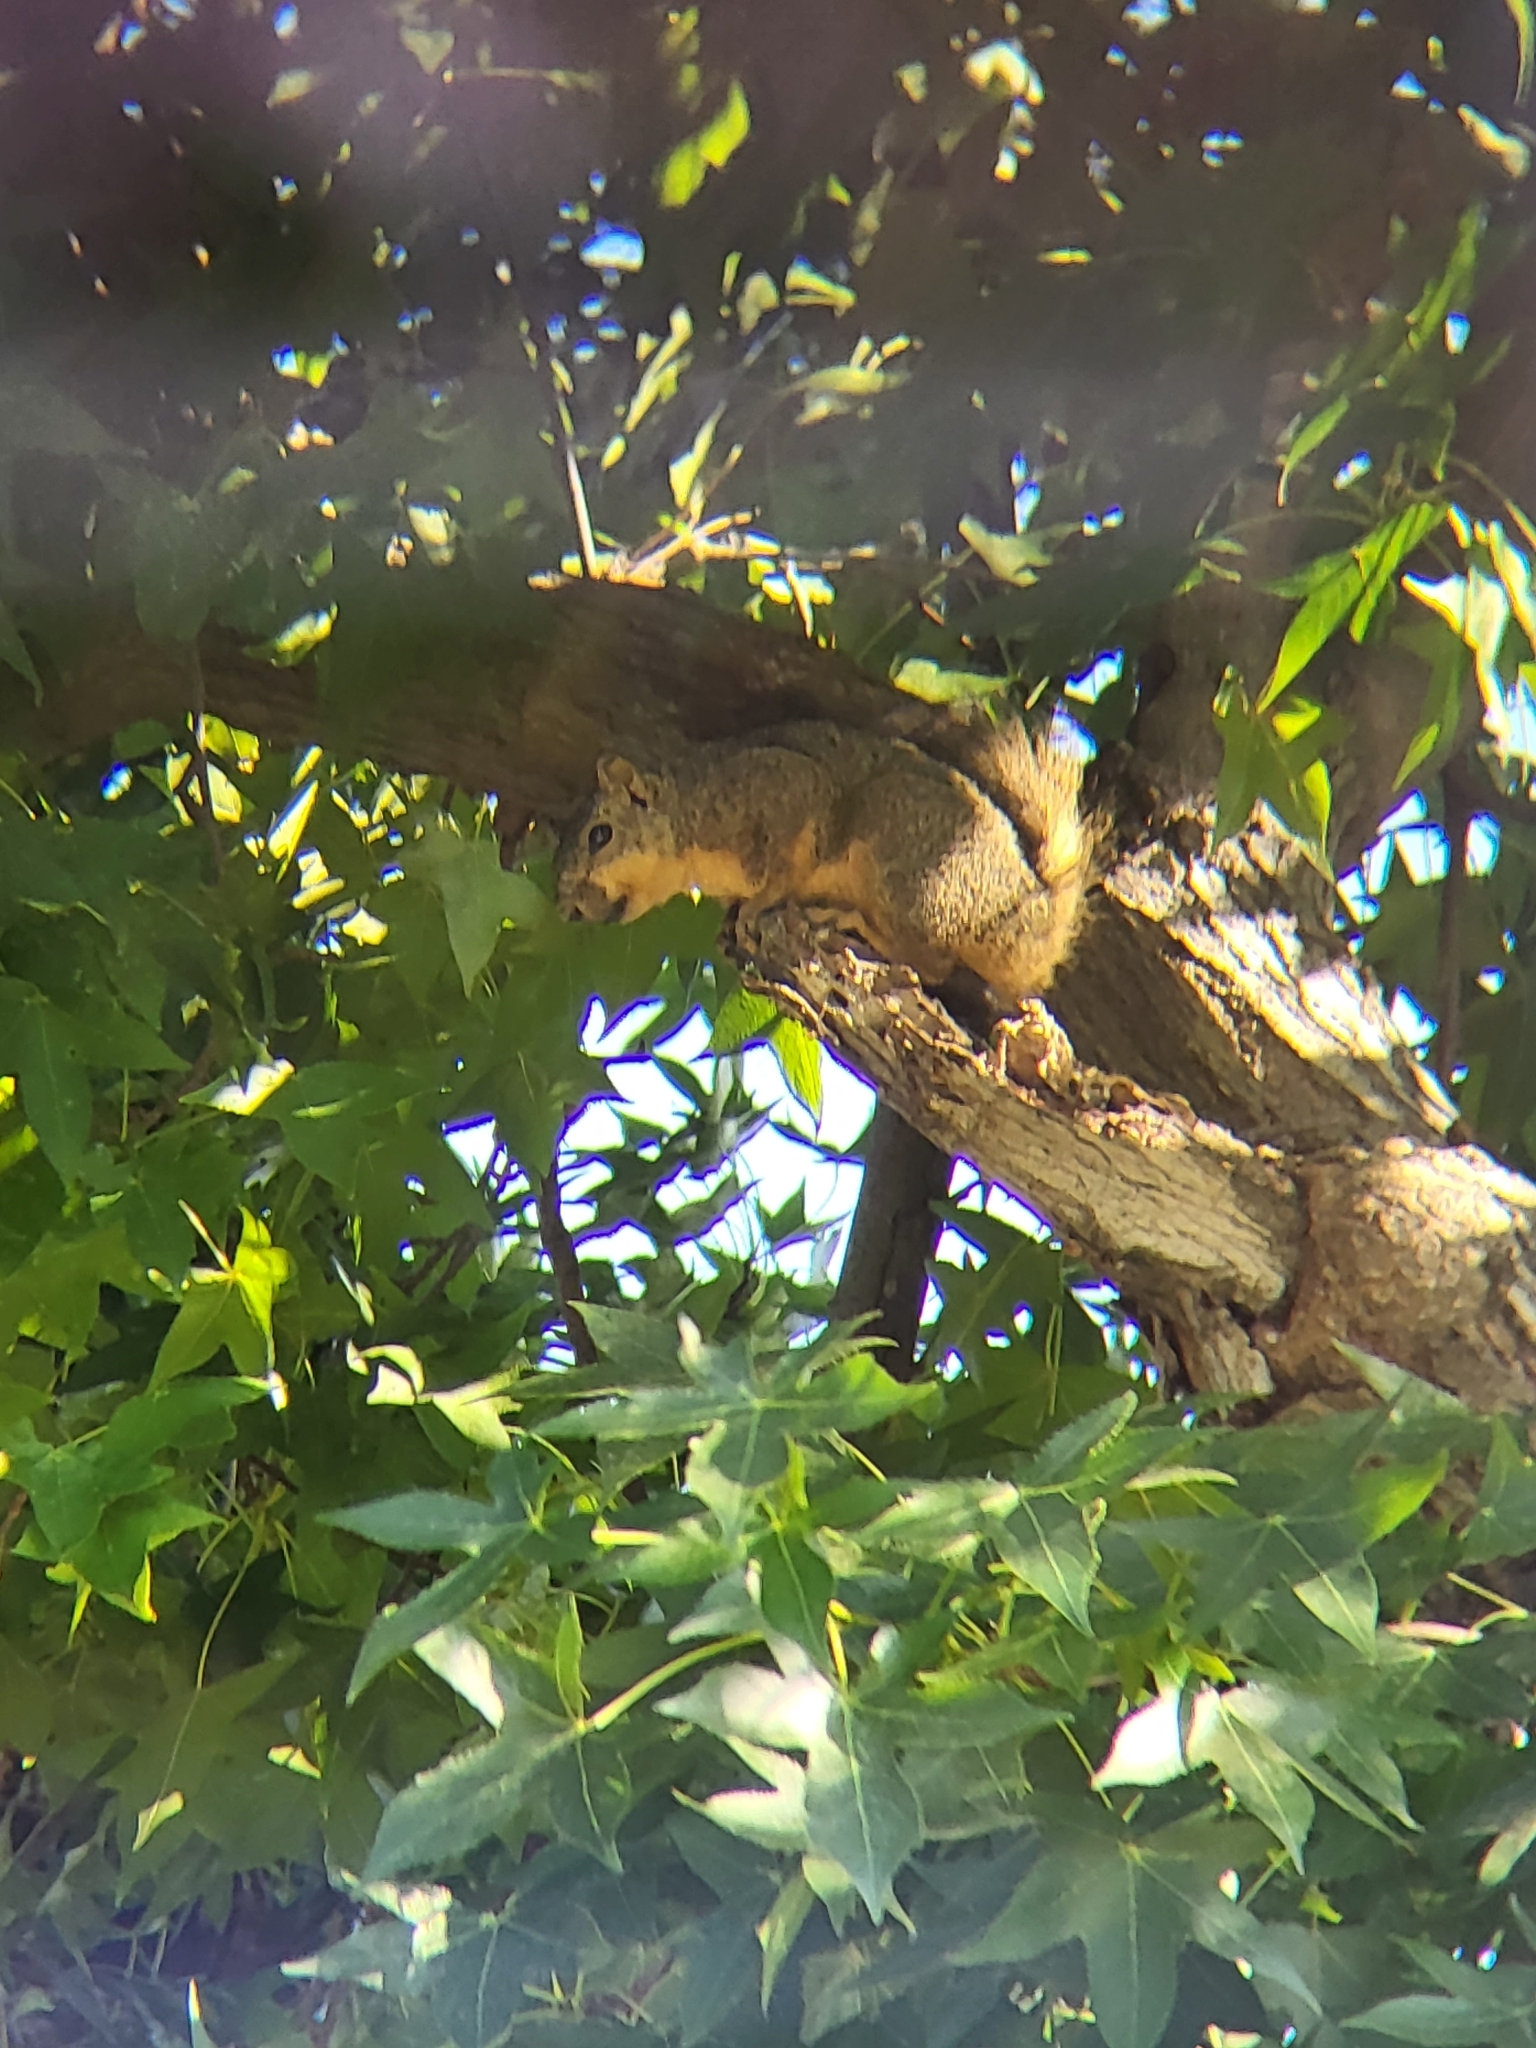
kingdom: Animalia
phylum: Chordata
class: Mammalia
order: Rodentia
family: Sciuridae
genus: Sciurus
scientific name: Sciurus niger
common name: Fox squirrel
